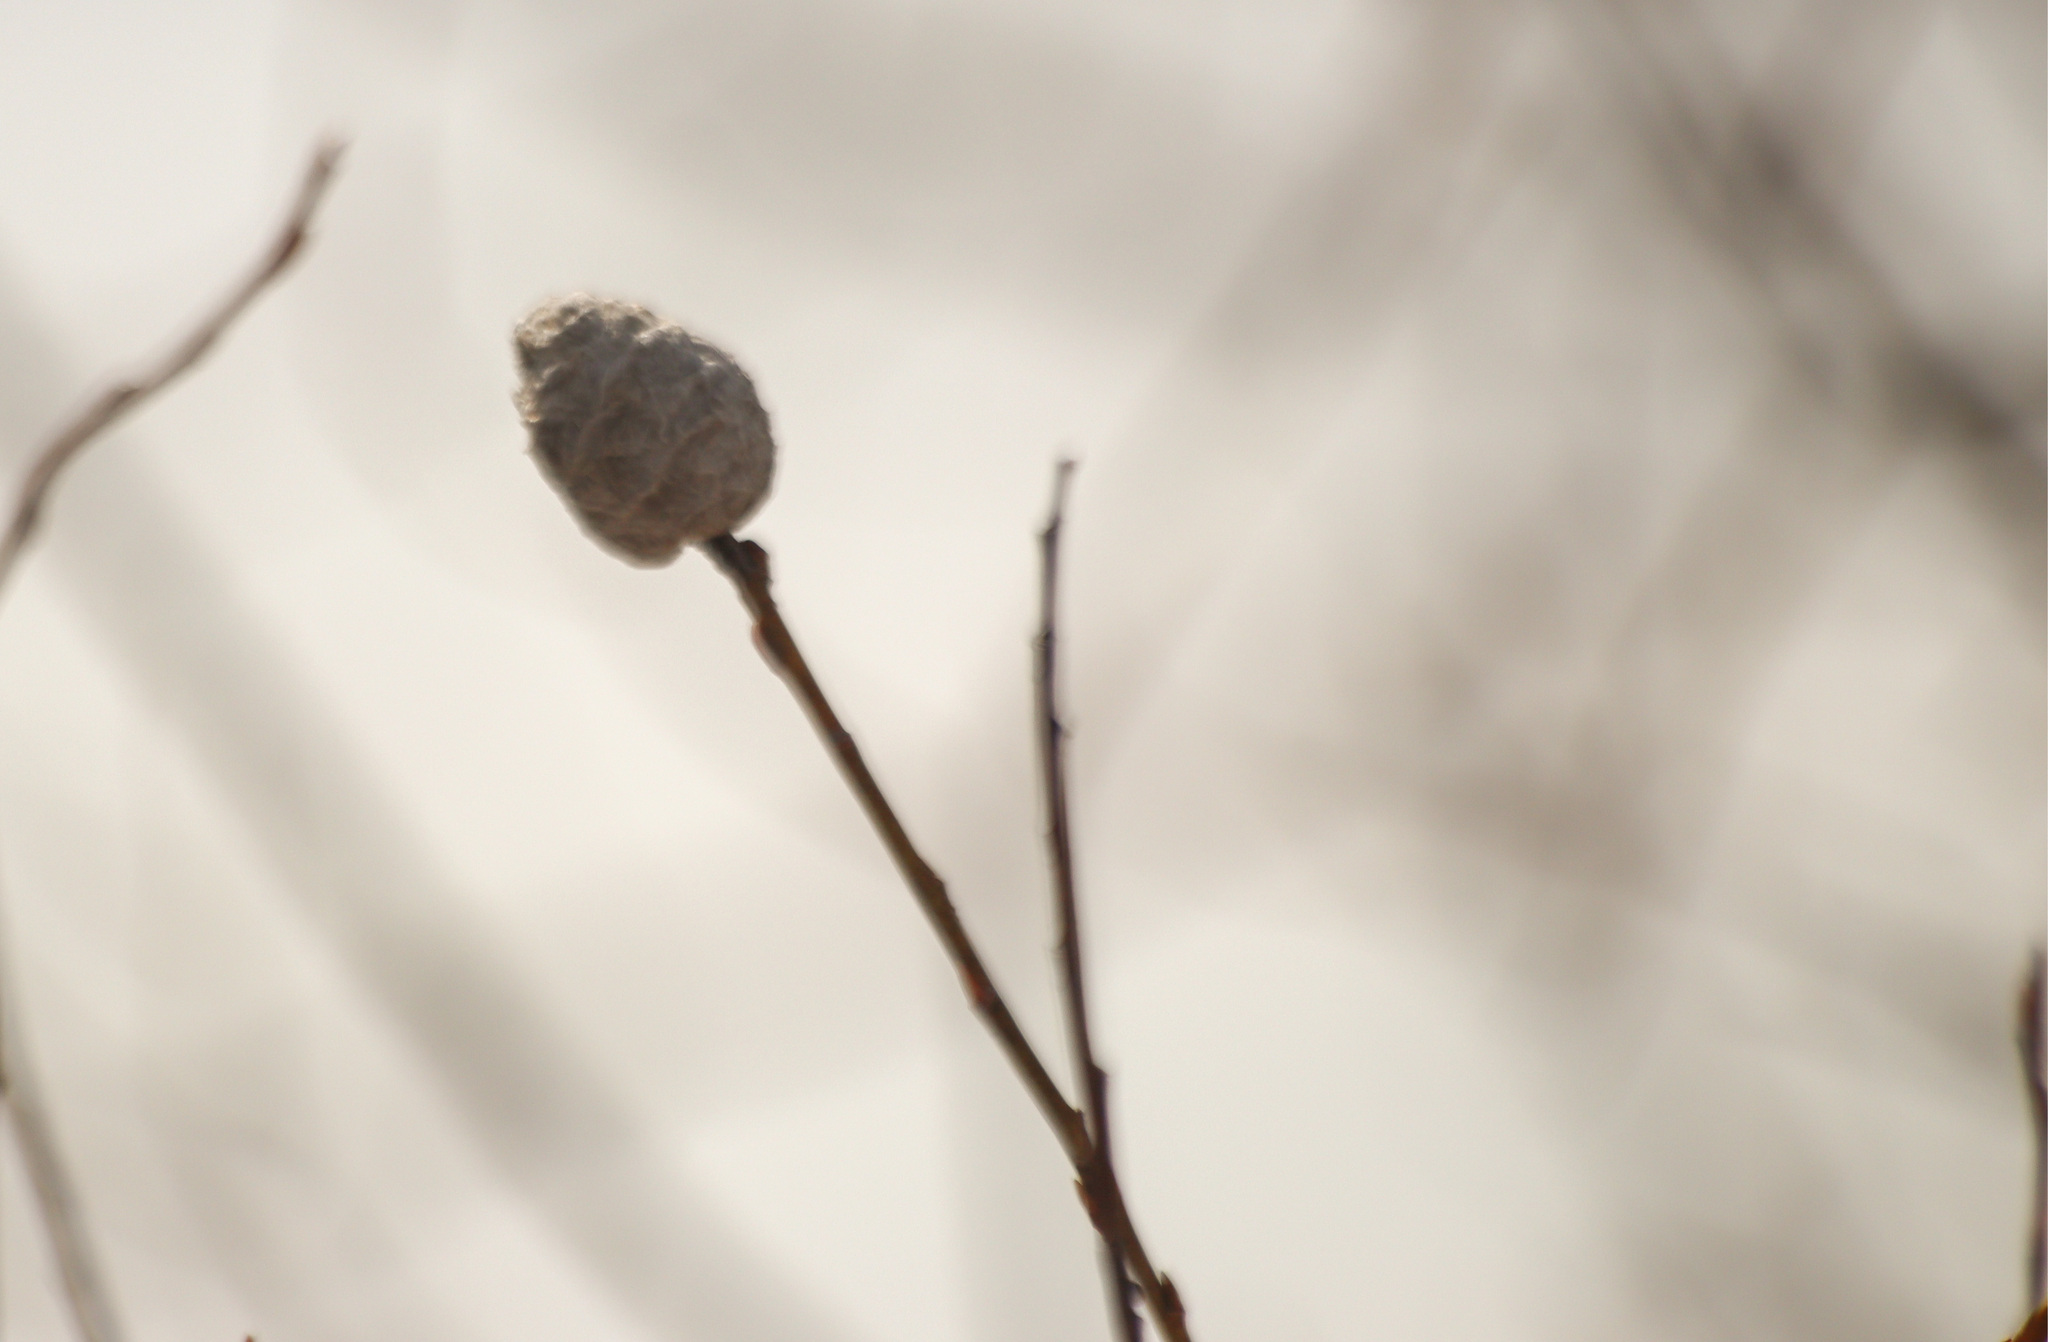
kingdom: Animalia
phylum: Arthropoda
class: Insecta
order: Diptera
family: Cecidomyiidae
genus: Rabdophaga
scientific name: Rabdophaga strobiloides
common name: Willow pinecone gall midge
